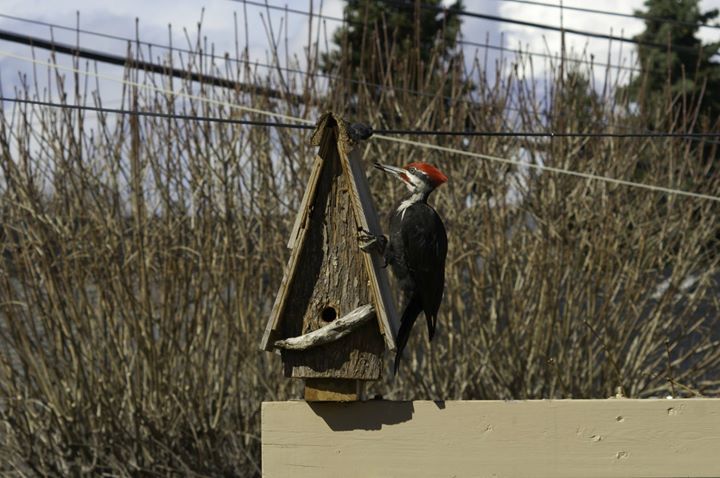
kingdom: Animalia
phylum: Chordata
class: Aves
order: Piciformes
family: Picidae
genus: Dryocopus
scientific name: Dryocopus pileatus
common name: Pileated woodpecker
